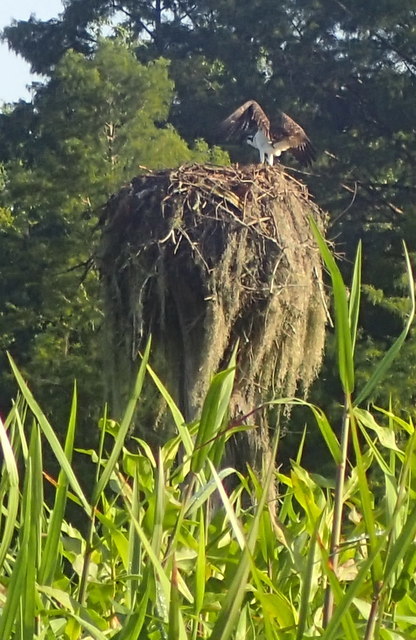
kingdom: Animalia
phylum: Chordata
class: Aves
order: Accipitriformes
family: Pandionidae
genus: Pandion
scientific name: Pandion haliaetus
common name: Osprey
